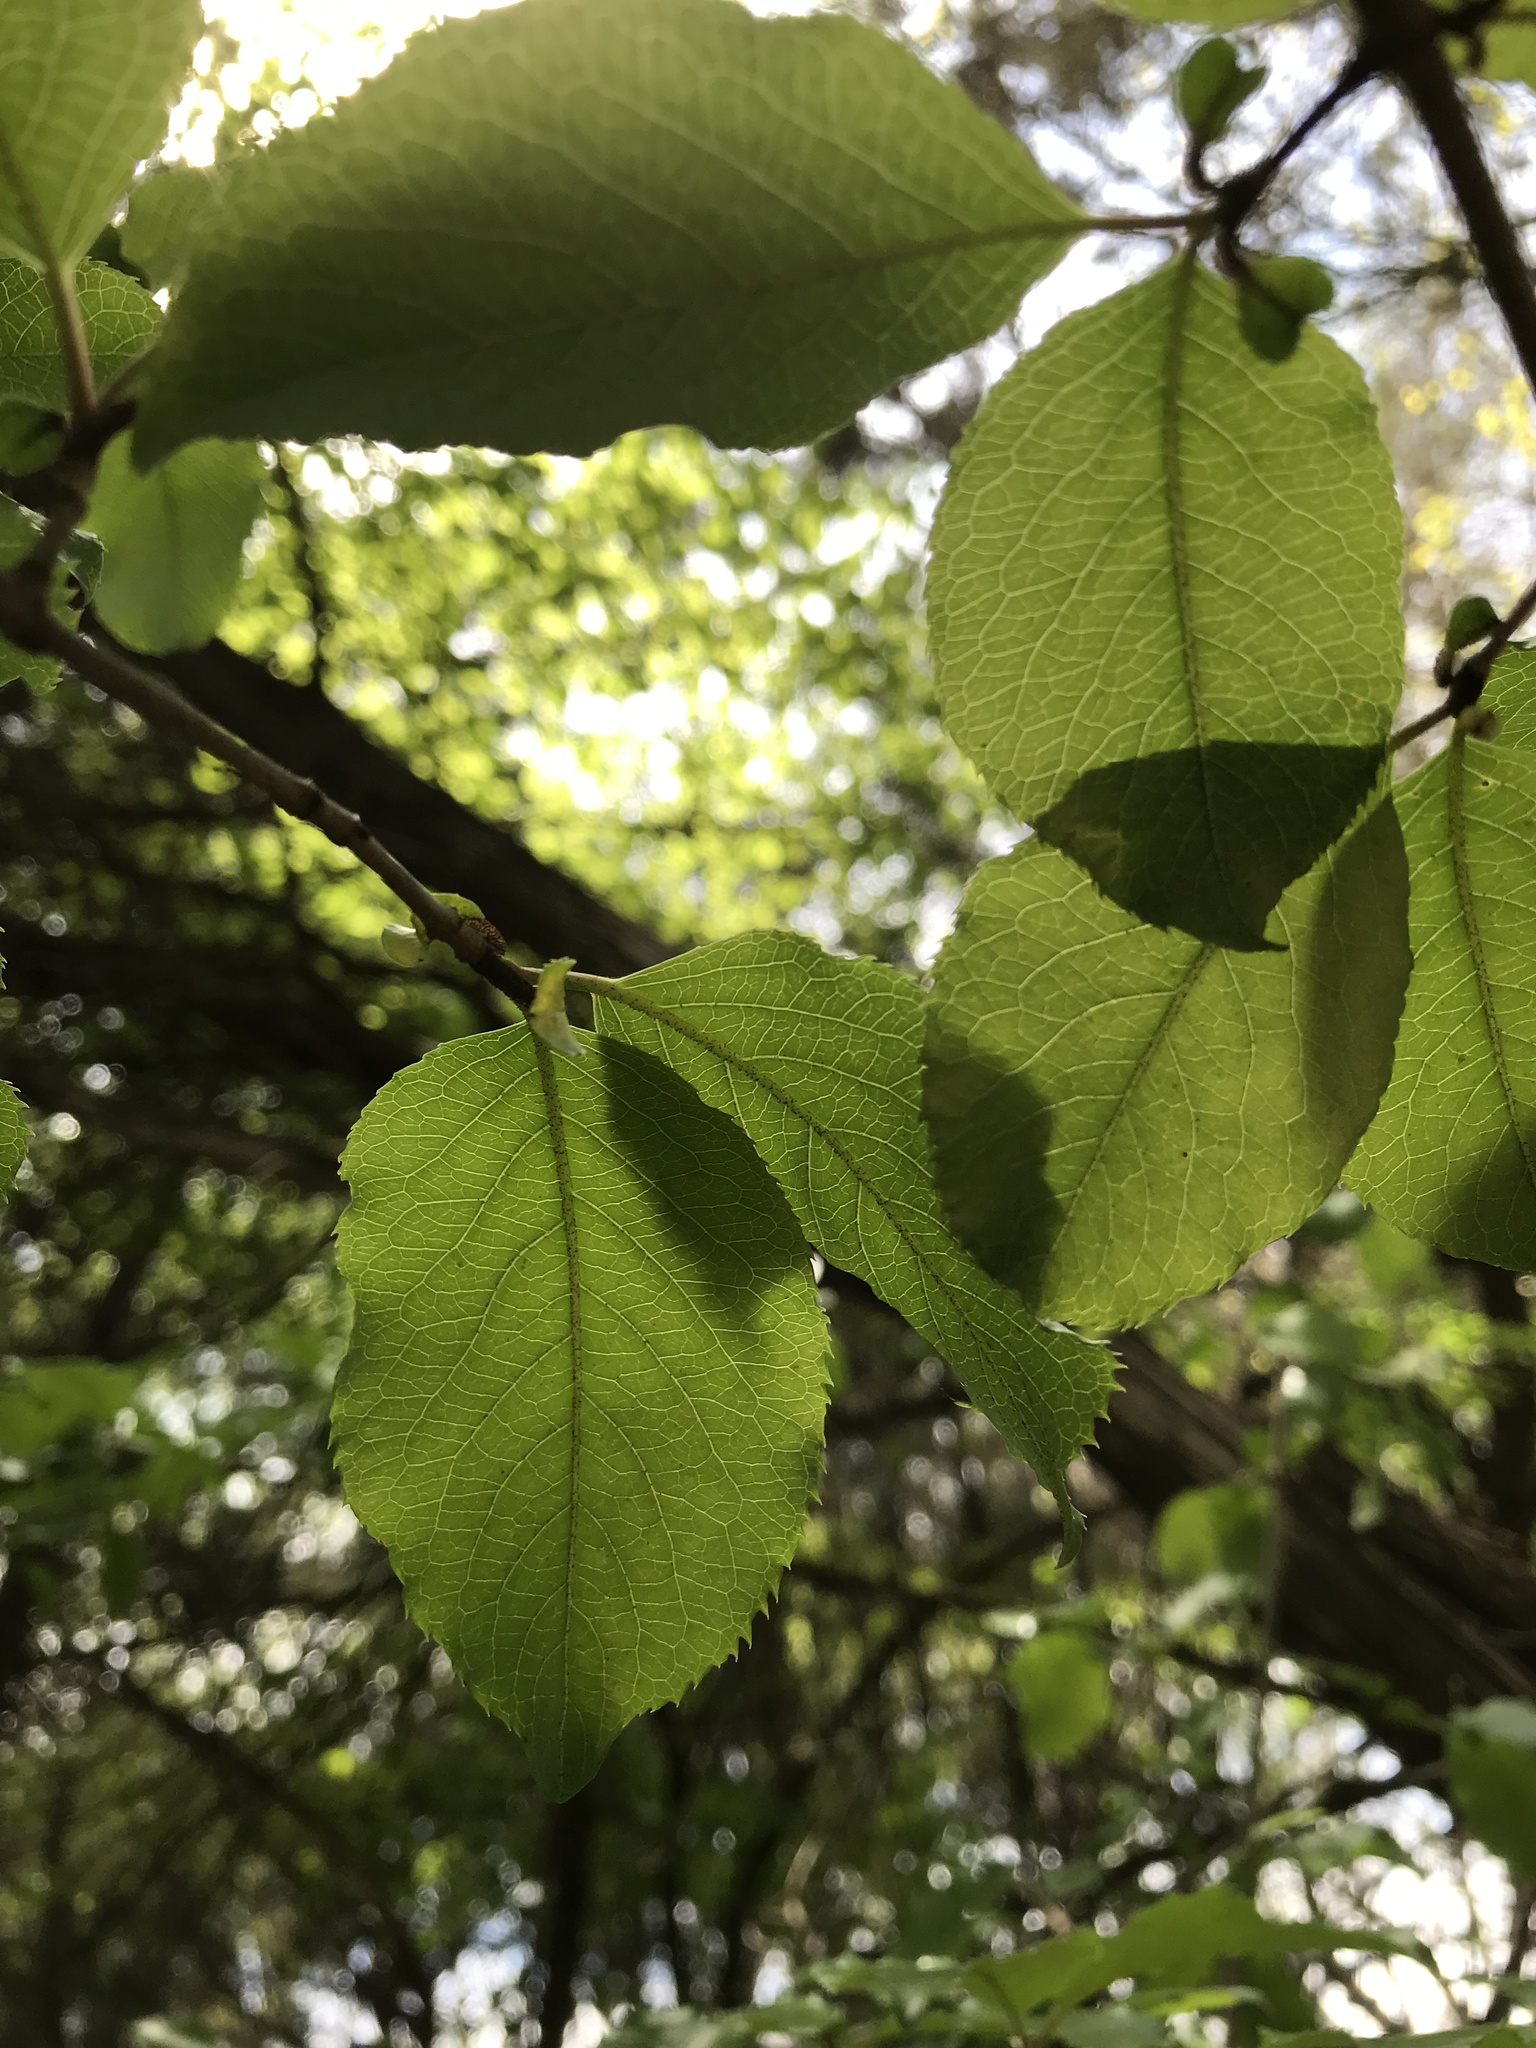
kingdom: Plantae
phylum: Tracheophyta
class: Magnoliopsida
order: Dipsacales
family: Viburnaceae
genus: Viburnum
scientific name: Viburnum rufidulum
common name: Blue haw
